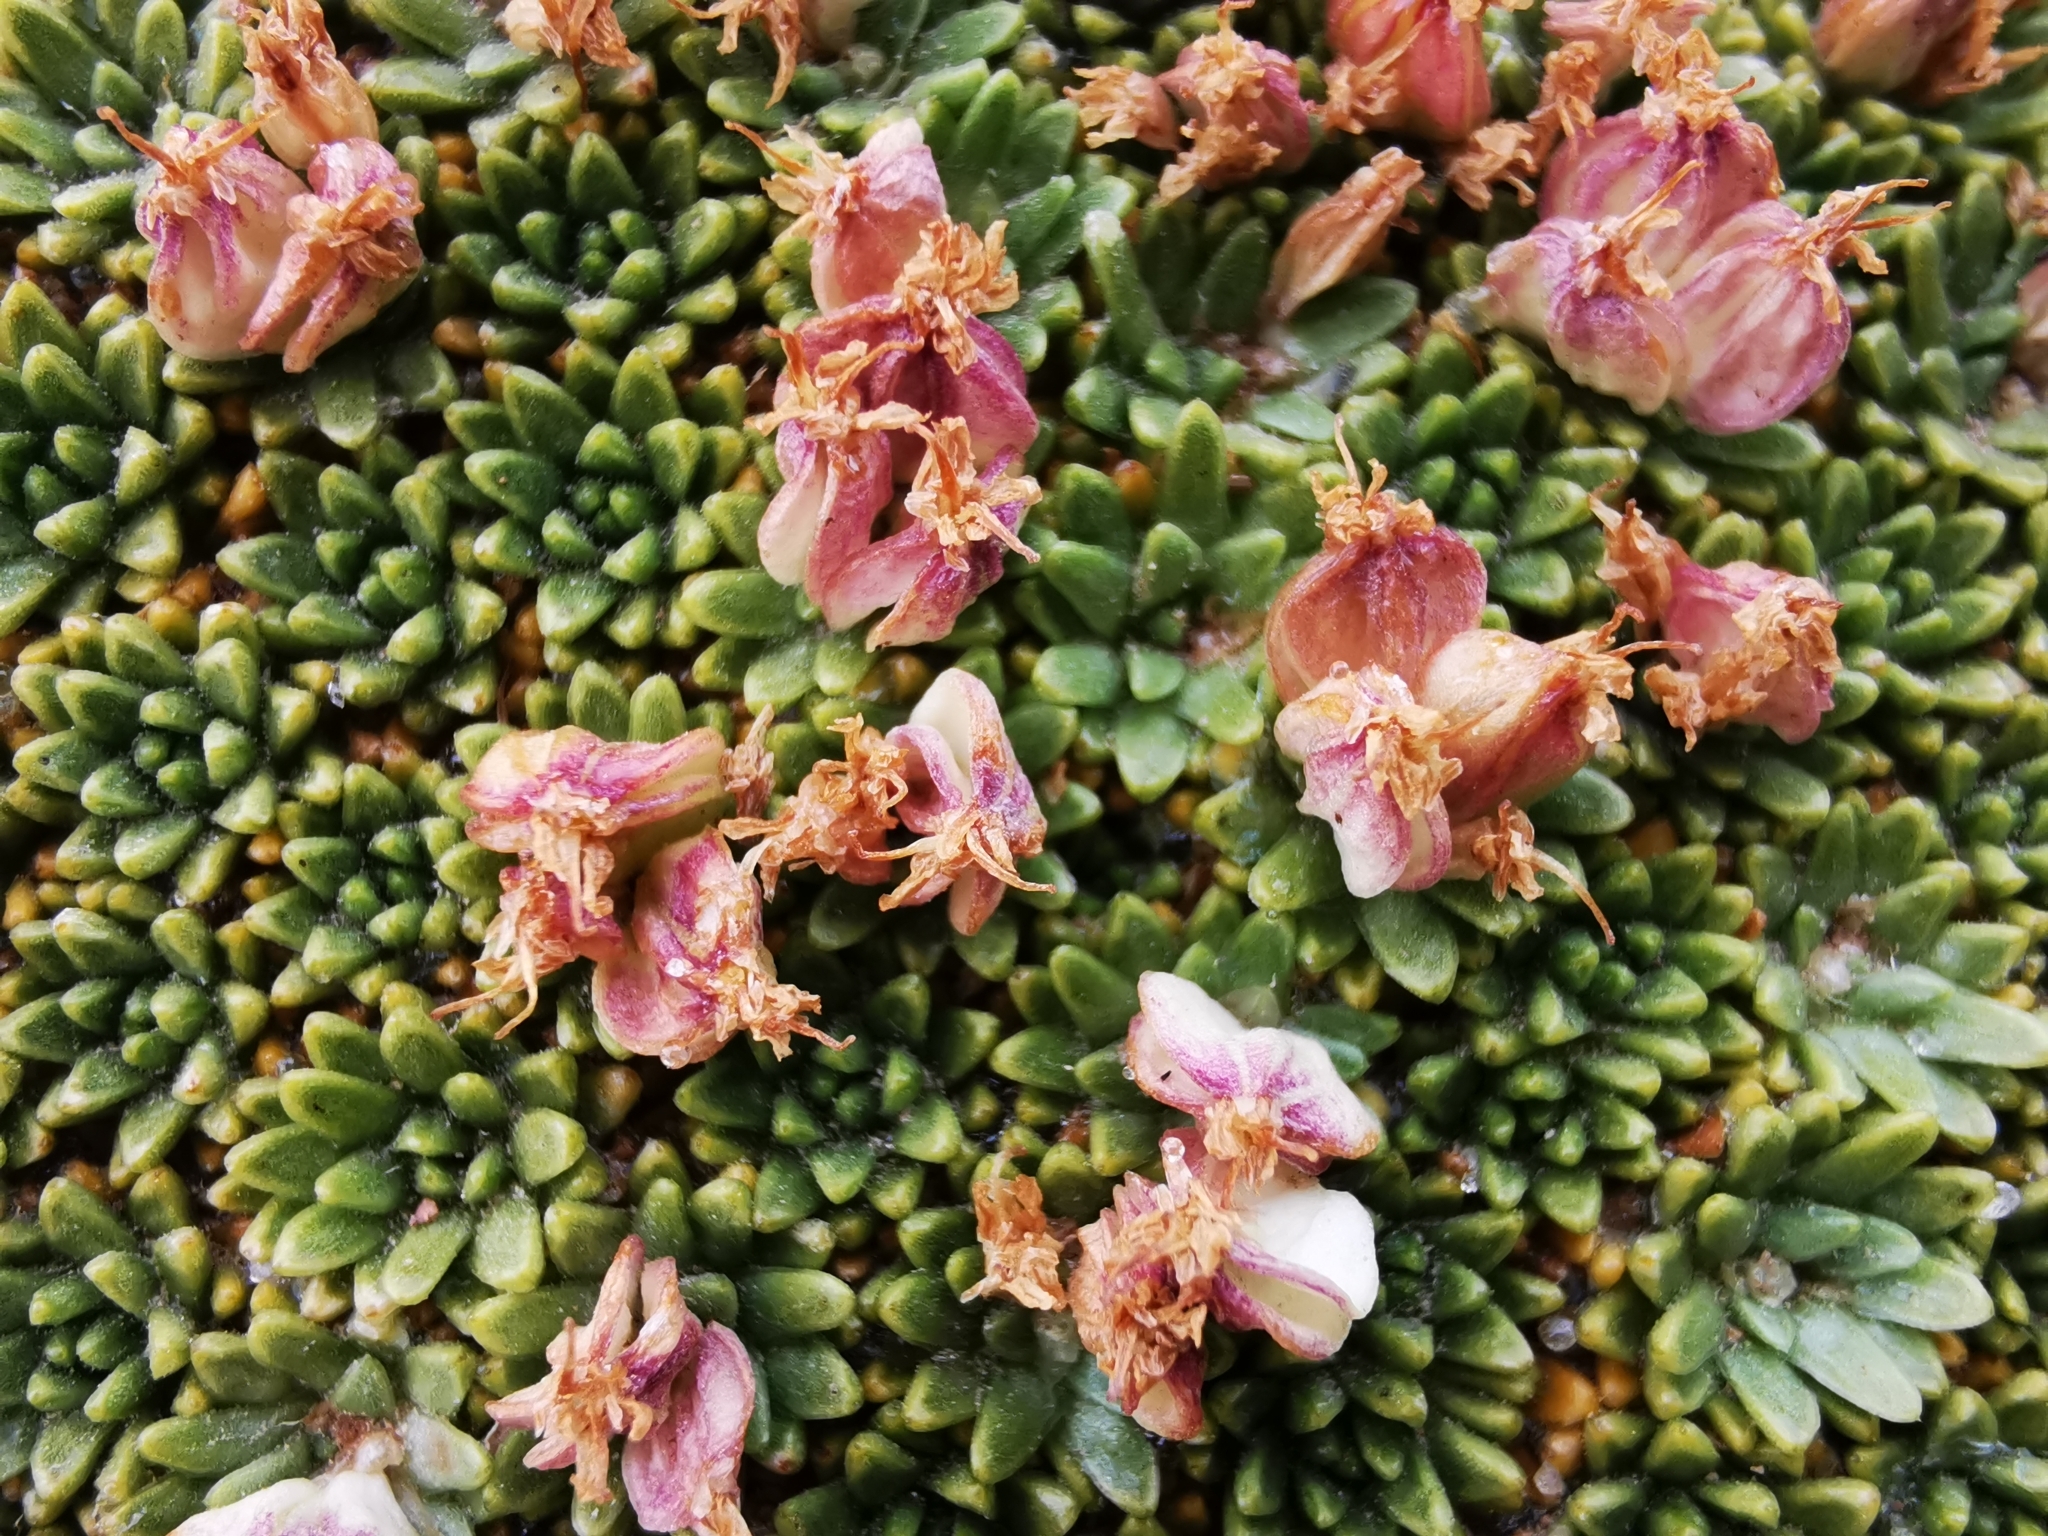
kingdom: Plantae
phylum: Tracheophyta
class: Magnoliopsida
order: Apiales
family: Apiaceae
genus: Azorella
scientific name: Azorella compacta
